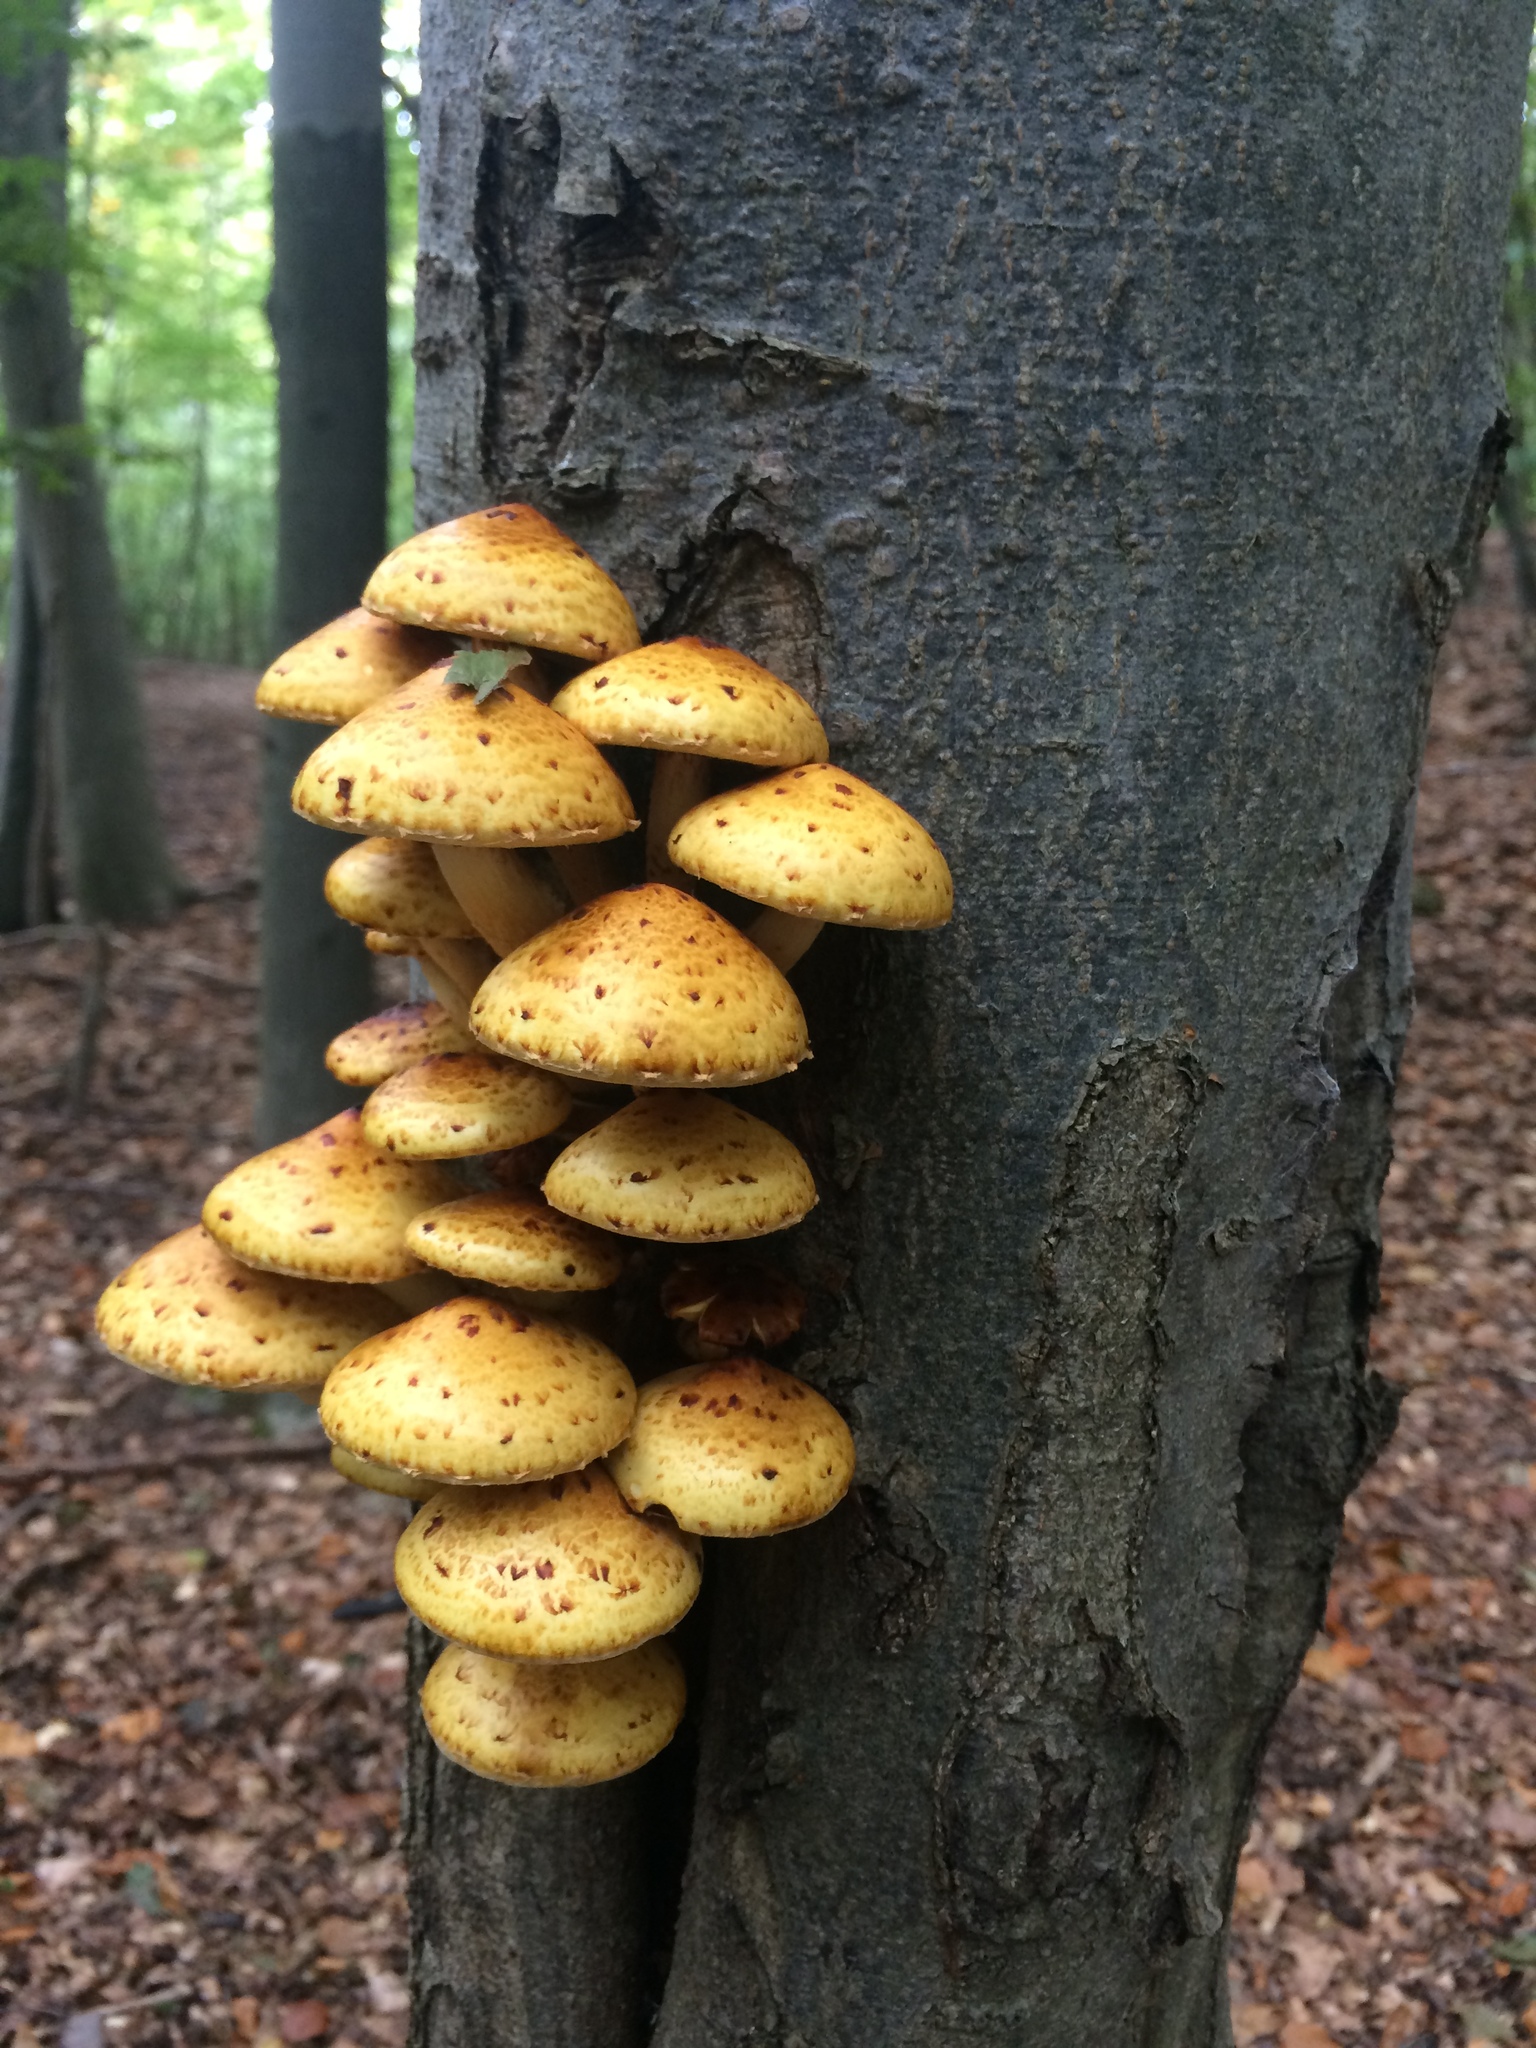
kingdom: Fungi
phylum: Basidiomycota
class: Agaricomycetes
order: Agaricales
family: Strophariaceae
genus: Pholiota
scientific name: Pholiota adiposa
